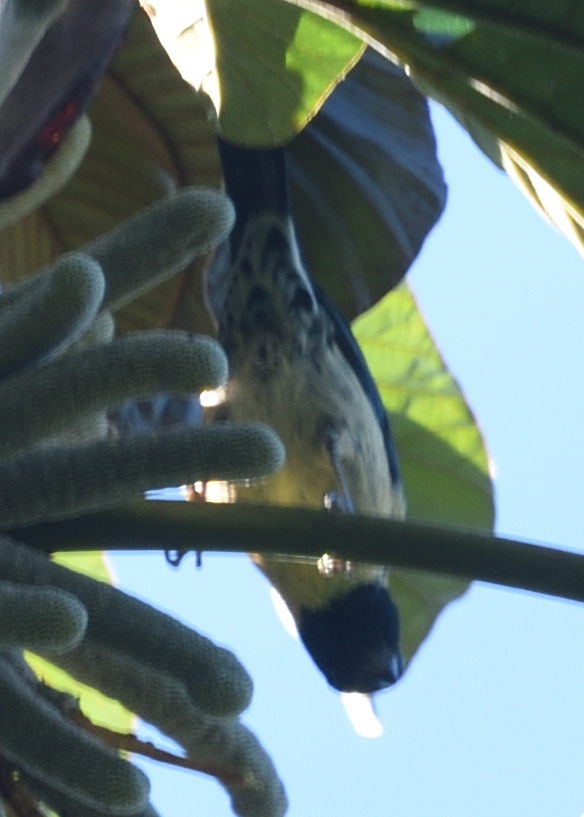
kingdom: Animalia
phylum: Chordata
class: Aves
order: Passeriformes
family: Thraupidae
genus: Stilpnia
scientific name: Stilpnia cyanoptera
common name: Black-headed tanager
